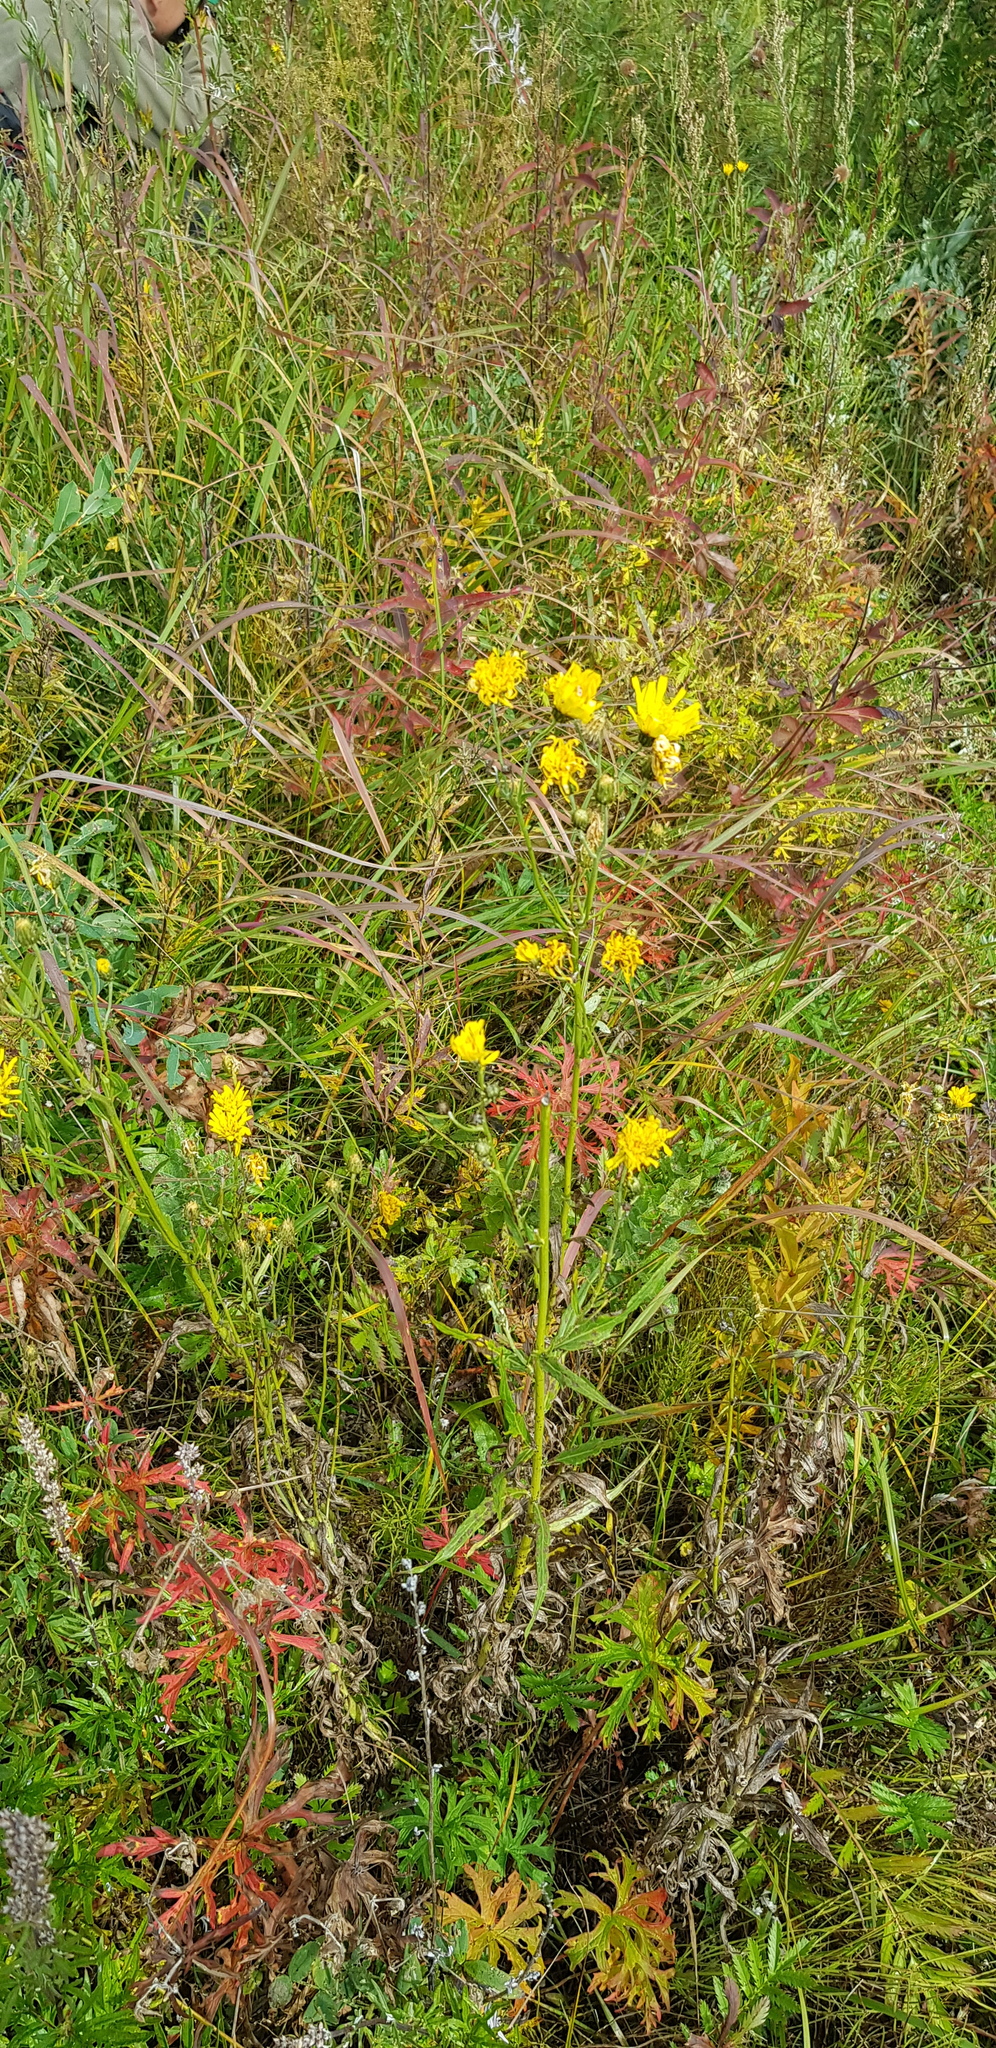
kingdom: Plantae
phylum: Tracheophyta
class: Magnoliopsida
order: Asterales
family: Asteraceae
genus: Hieracium
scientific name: Hieracium umbellatum
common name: Northern hawkweed
